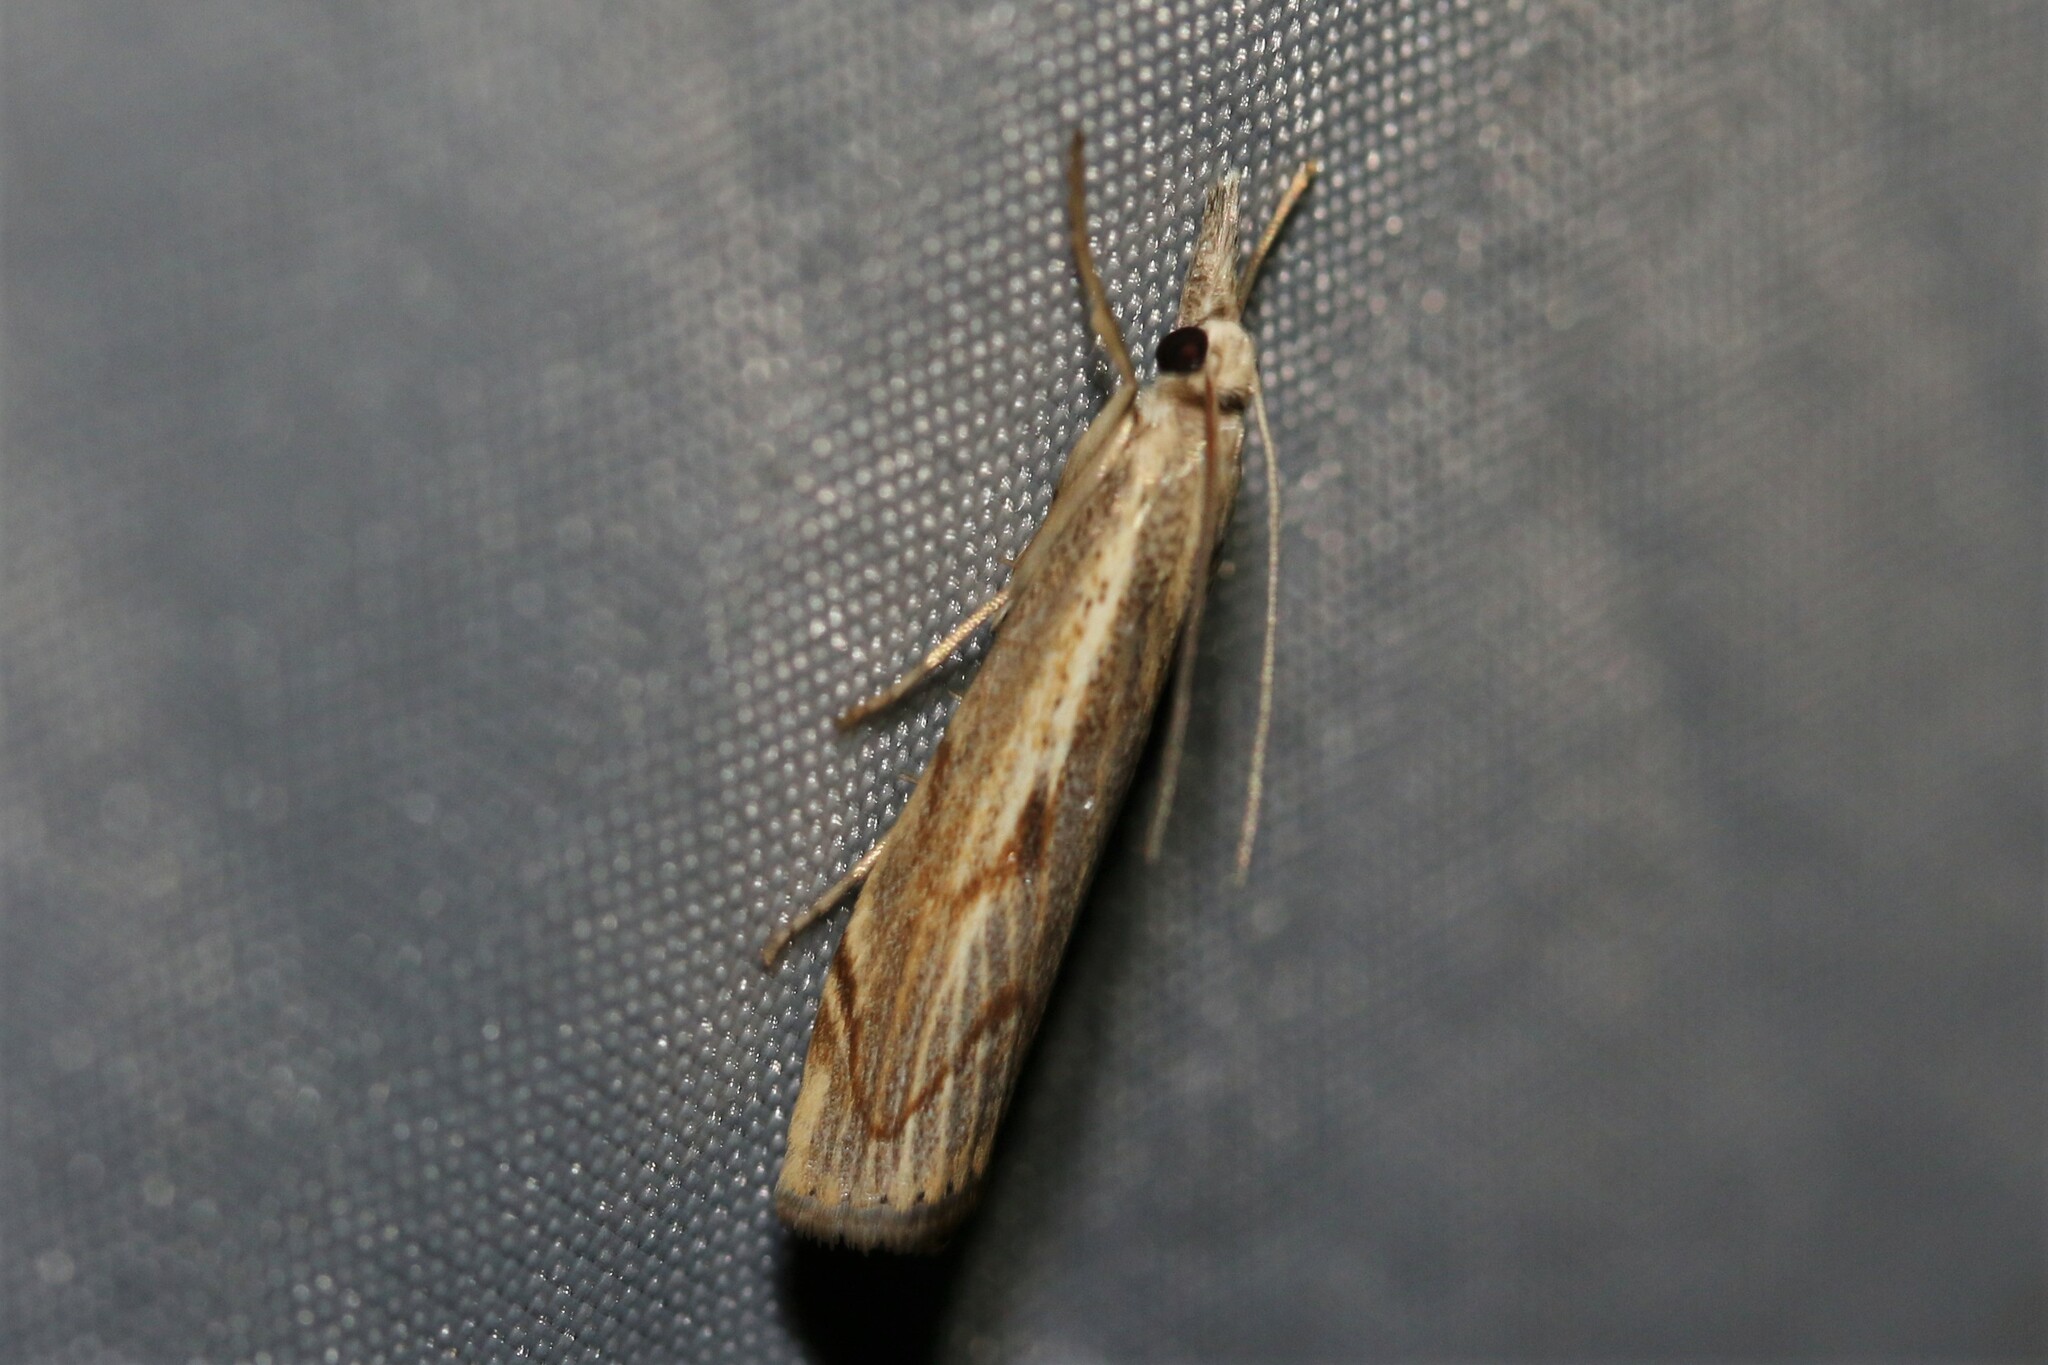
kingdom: Animalia
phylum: Arthropoda
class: Insecta
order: Lepidoptera
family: Crambidae
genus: Agriphila
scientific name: Agriphila geniculea
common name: Elbow-stripe grass-veneer
